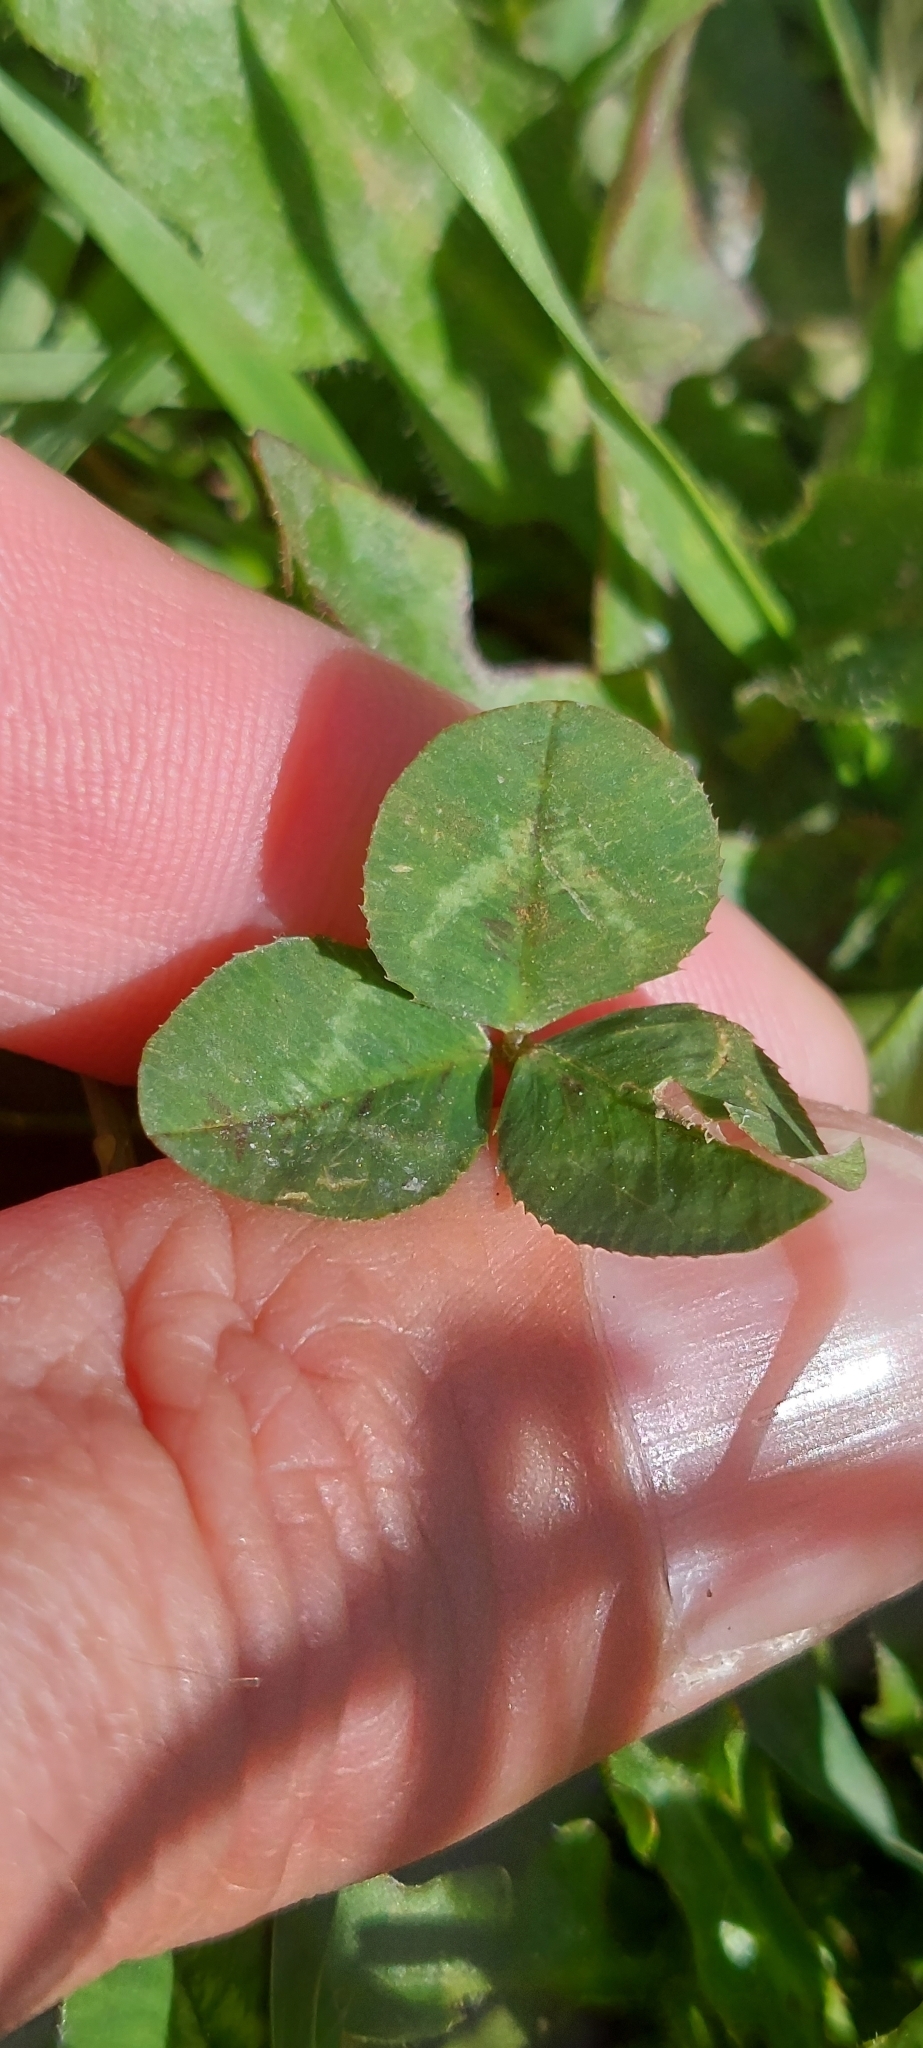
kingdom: Plantae
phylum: Tracheophyta
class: Magnoliopsida
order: Fabales
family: Fabaceae
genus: Trifolium
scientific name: Trifolium repens
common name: White clover
